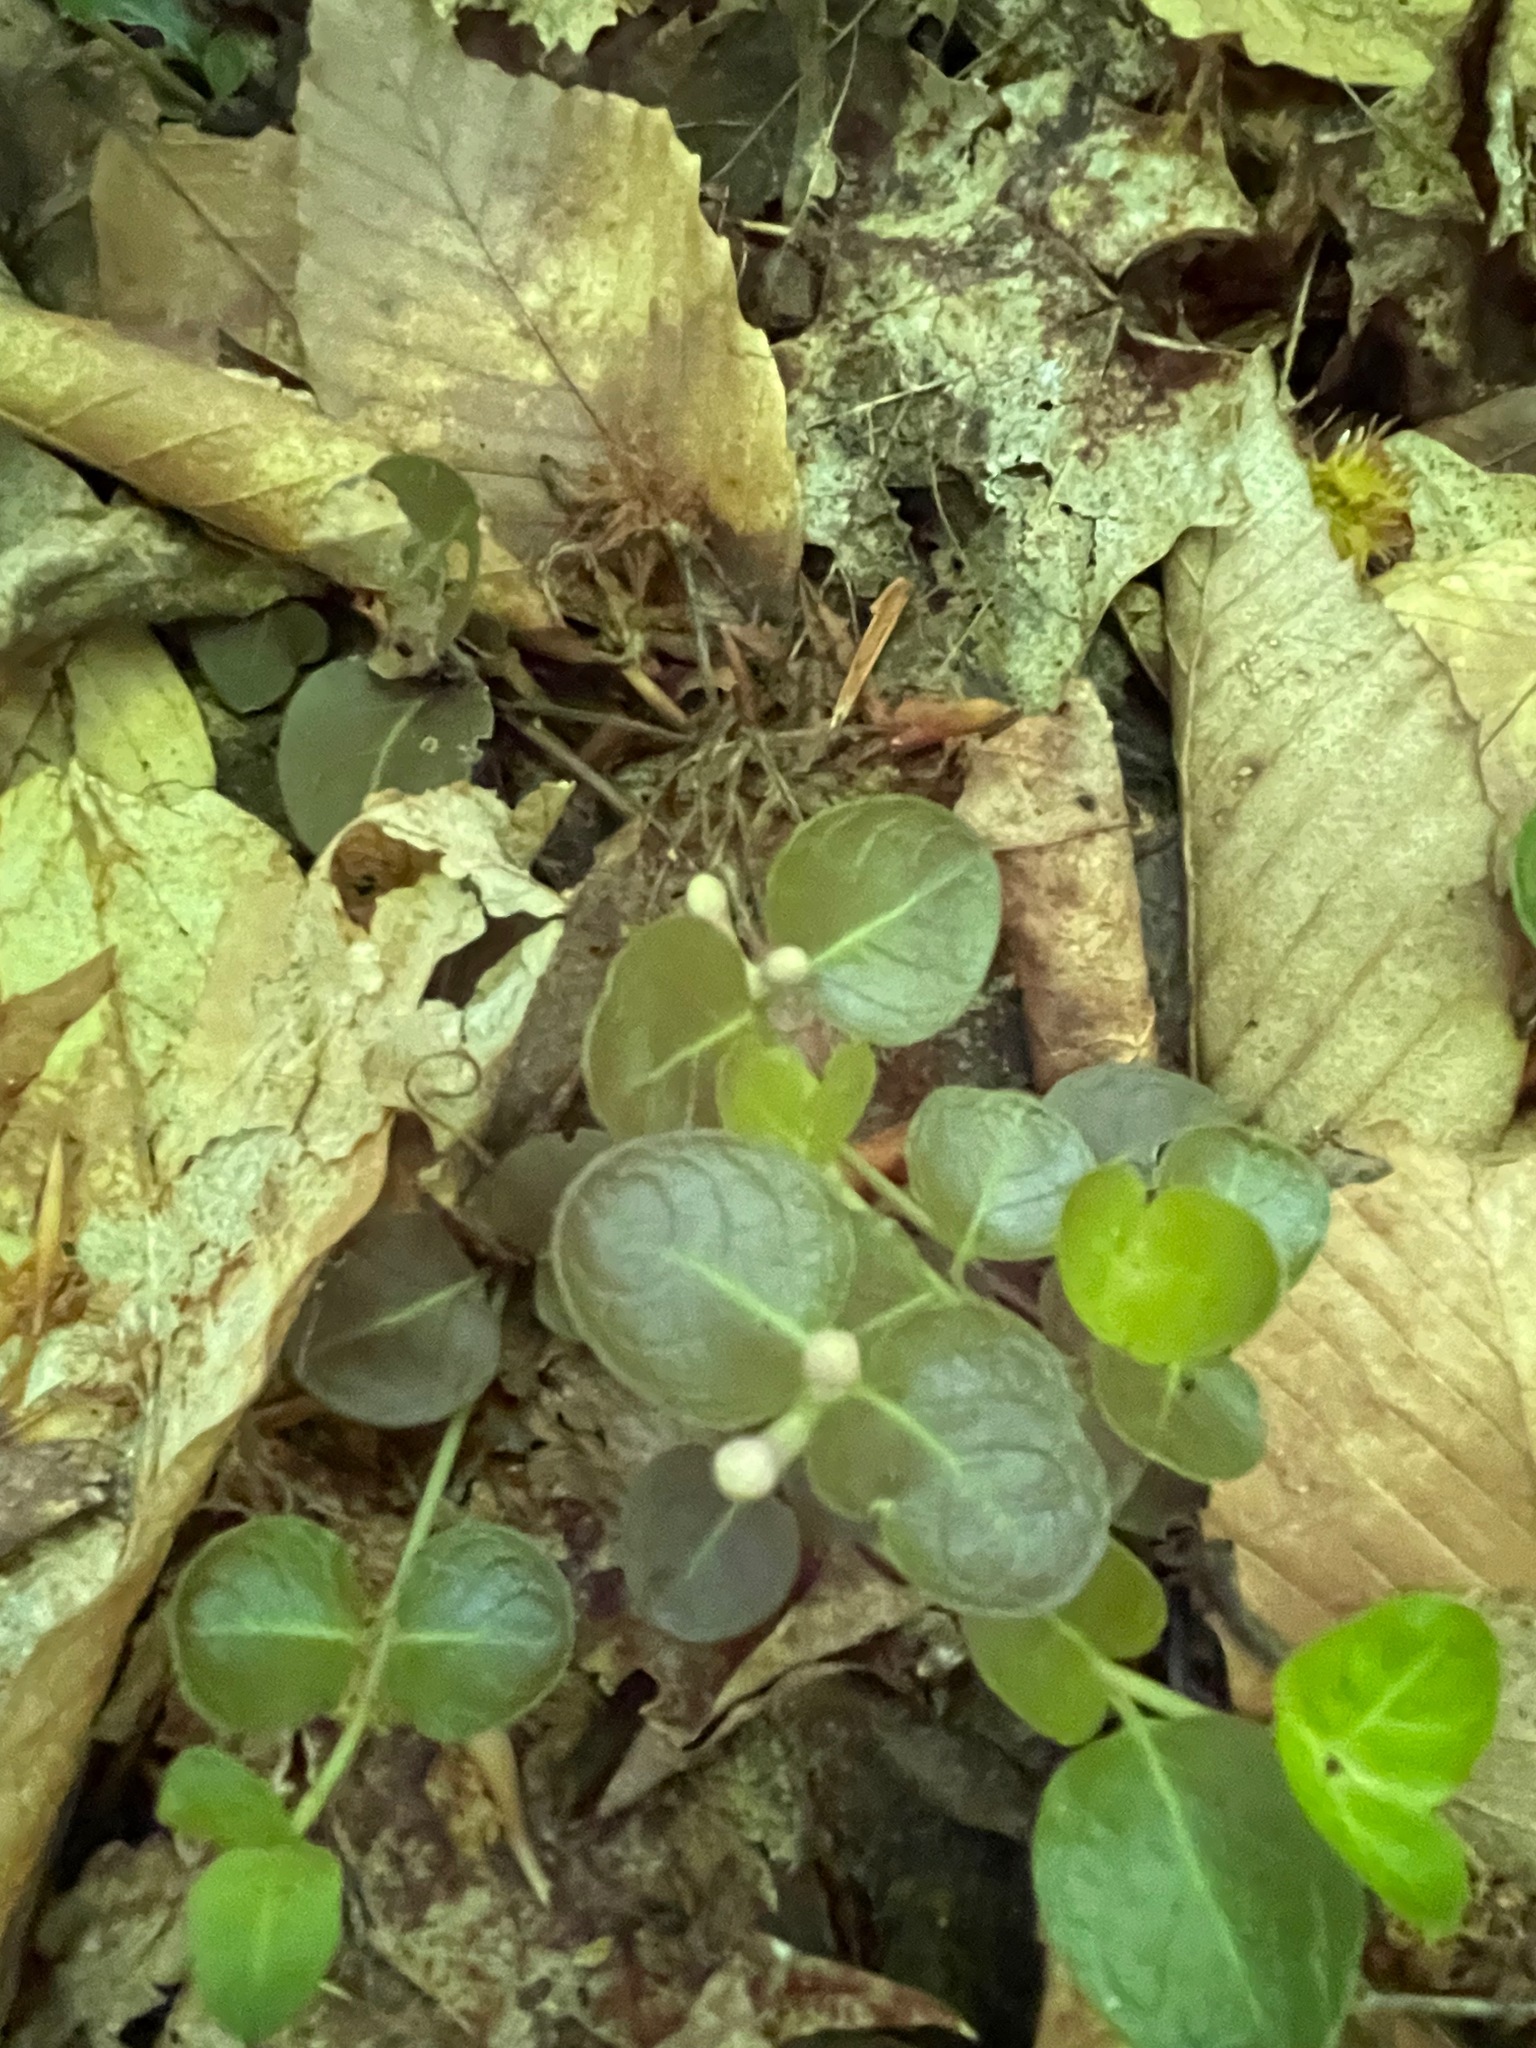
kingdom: Plantae
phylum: Tracheophyta
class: Magnoliopsida
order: Gentianales
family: Rubiaceae
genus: Mitchella
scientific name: Mitchella repens
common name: Partridge-berry
